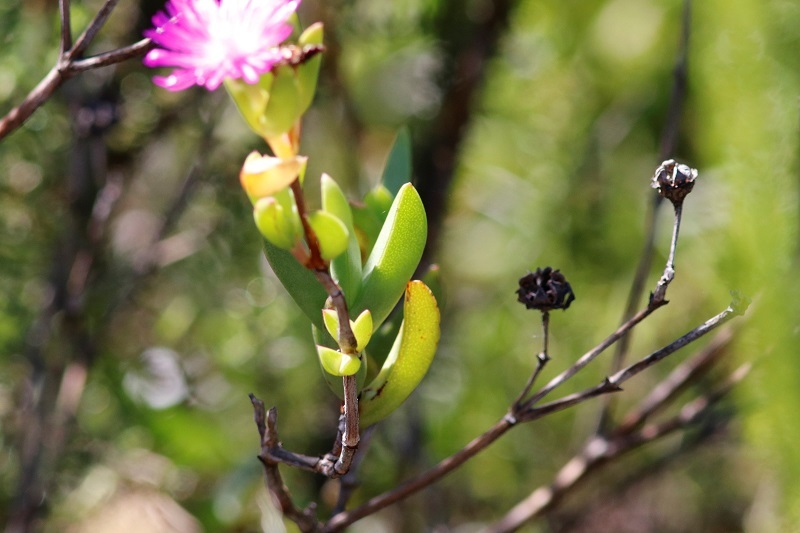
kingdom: Plantae
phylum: Tracheophyta
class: Magnoliopsida
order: Caryophyllales
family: Aizoaceae
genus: Esterhuysenia
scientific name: Esterhuysenia knysnana
